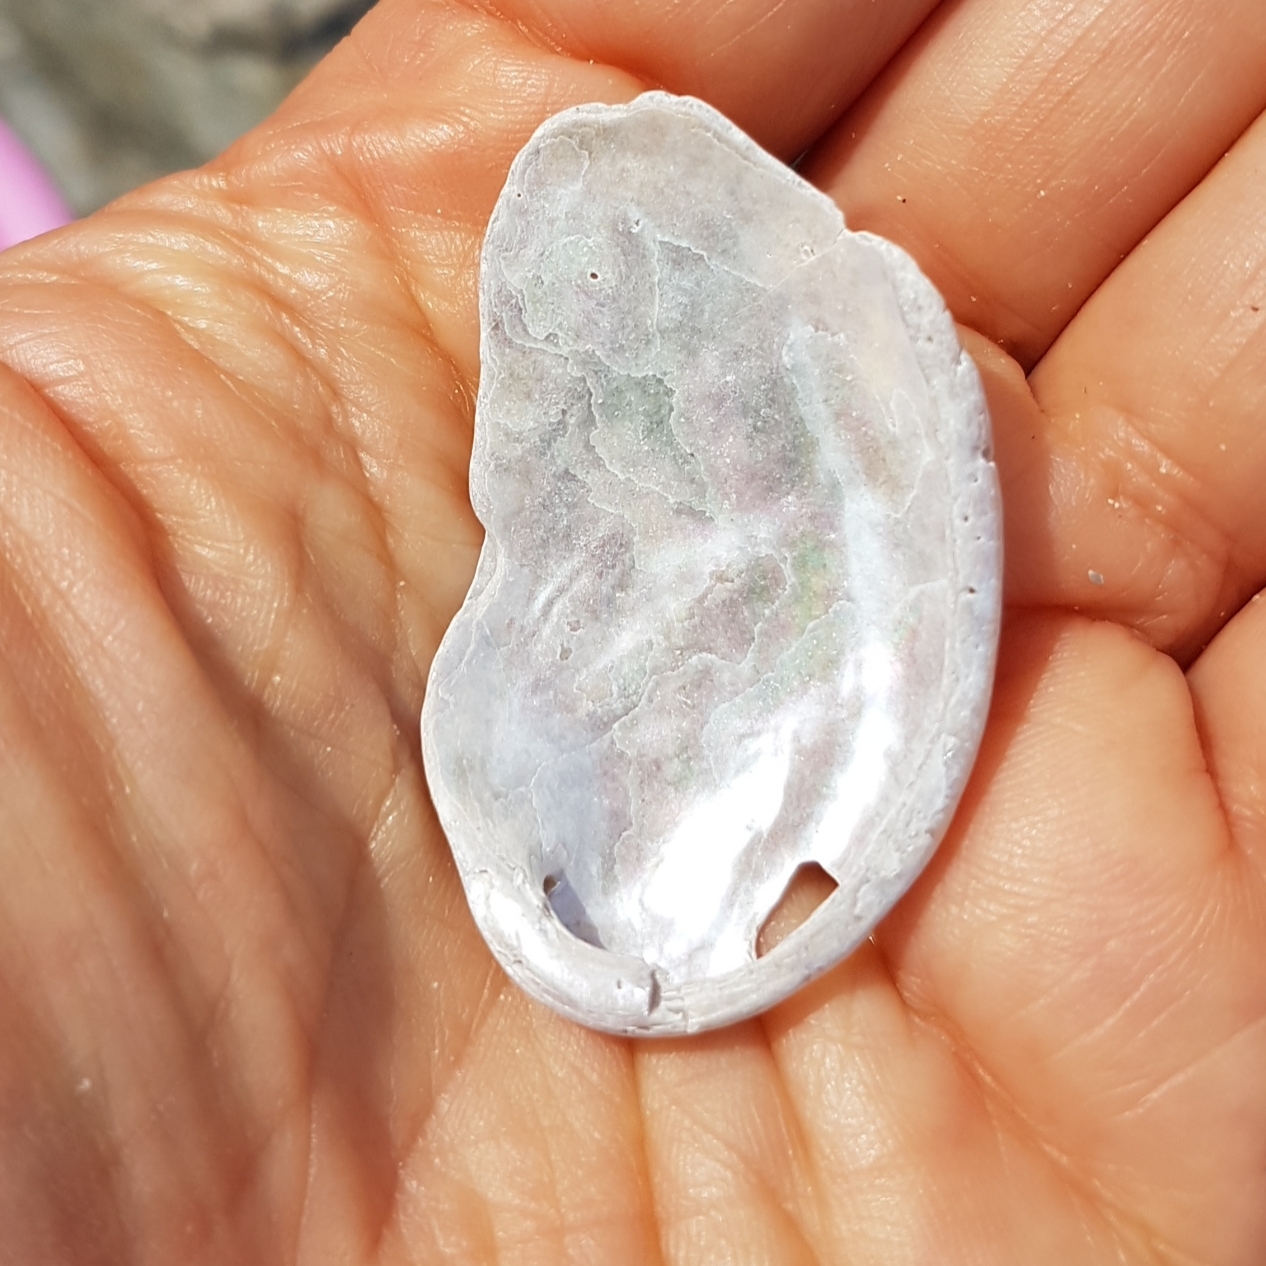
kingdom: Animalia
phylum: Mollusca
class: Gastropoda
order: Lepetellida
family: Haliotidae
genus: Haliotis
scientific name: Haliotis tuberculata
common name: Green ormer
